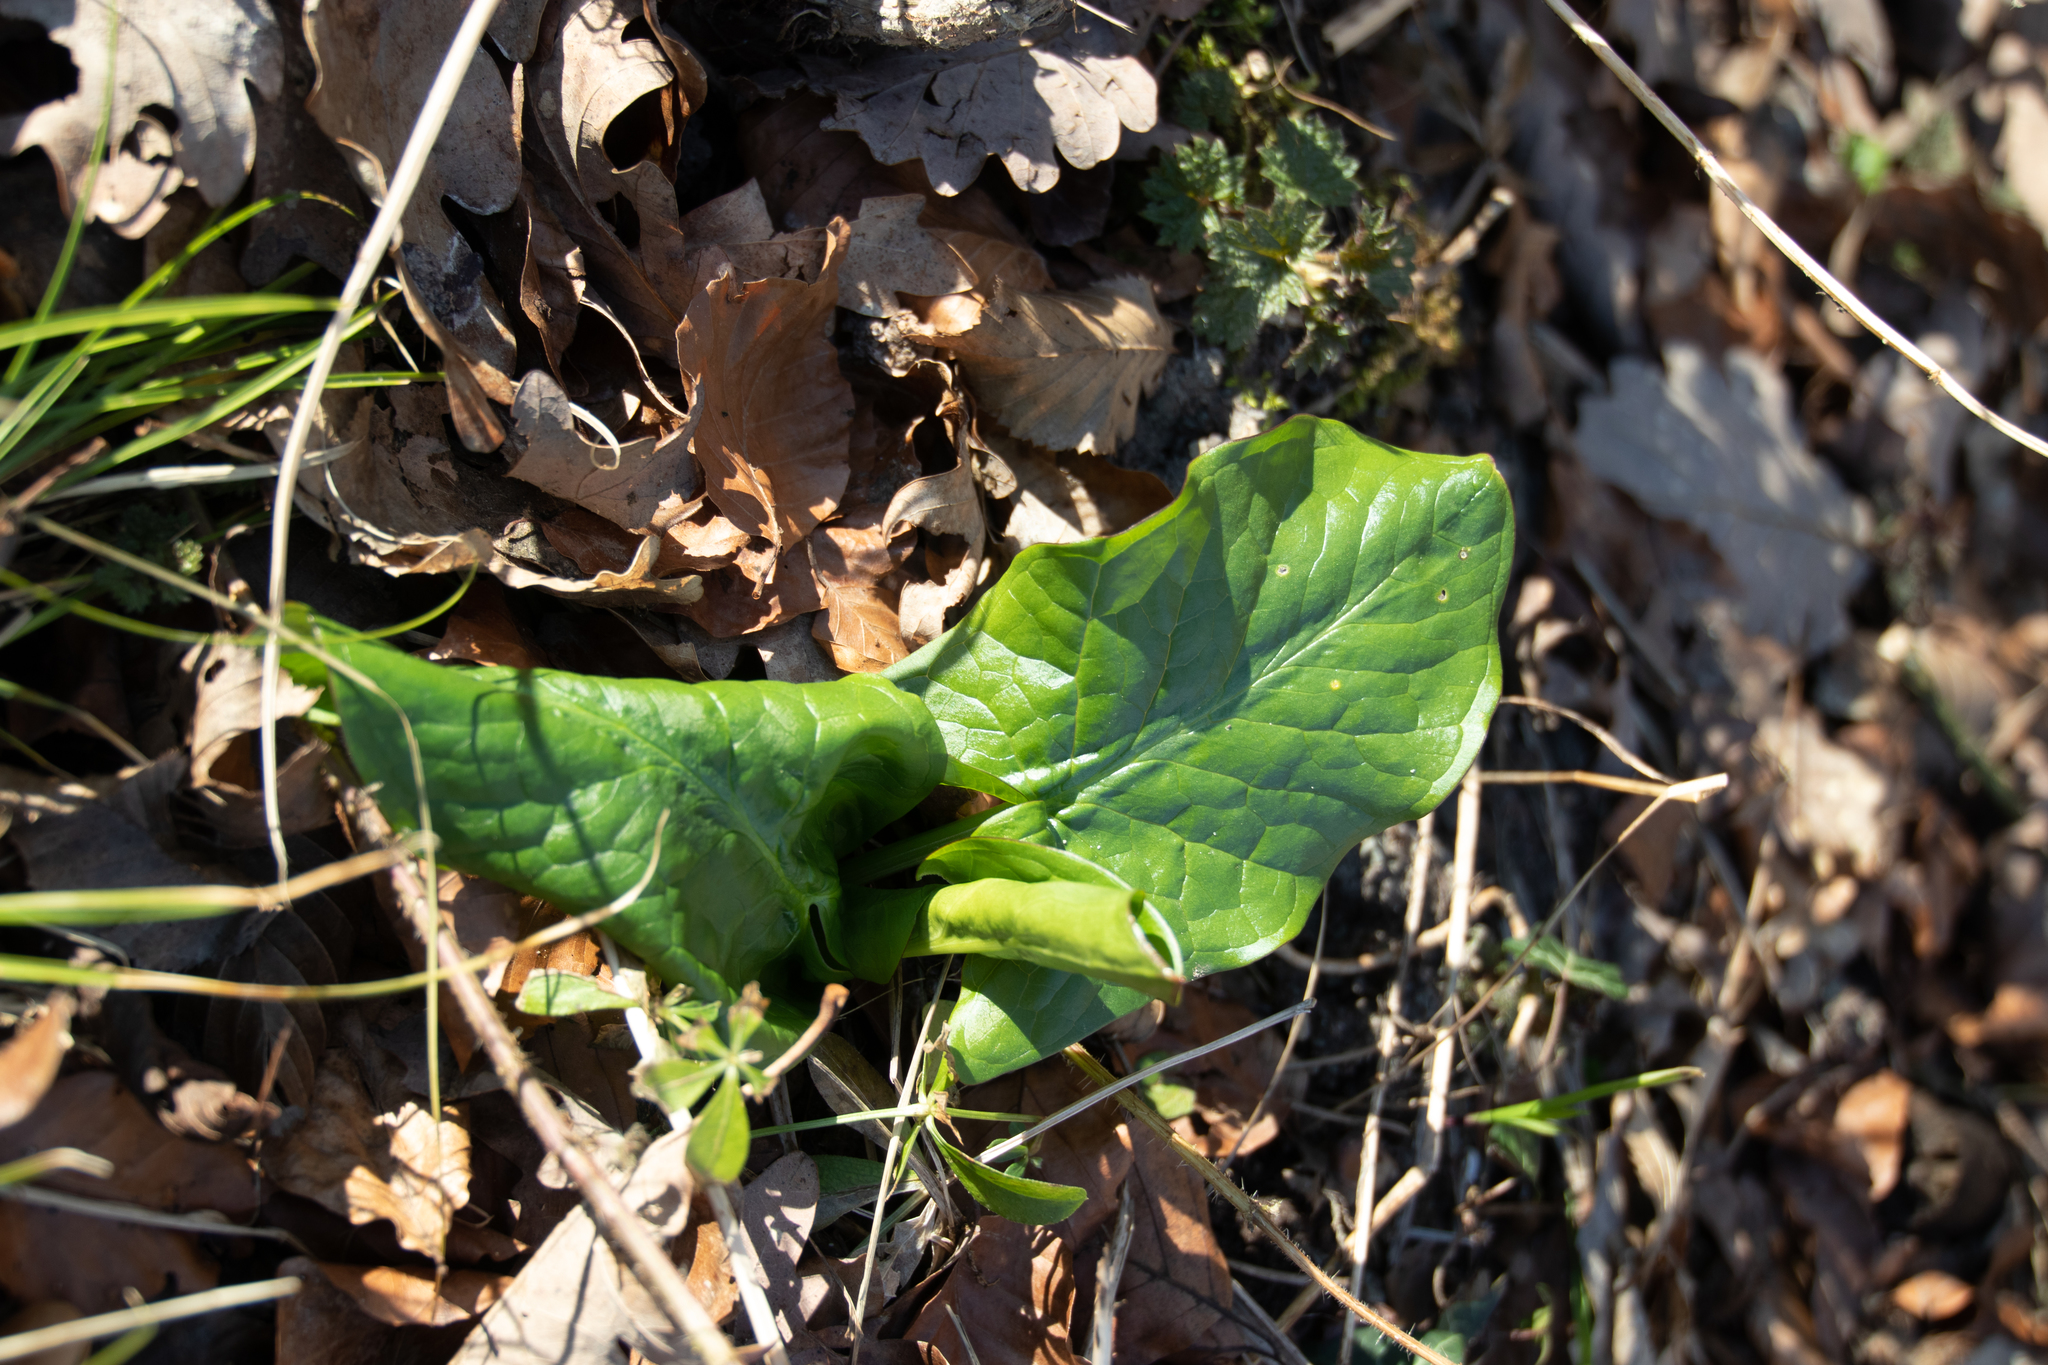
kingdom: Plantae
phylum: Tracheophyta
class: Liliopsida
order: Alismatales
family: Araceae
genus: Arum
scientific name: Arum maculatum
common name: Lords-and-ladies
